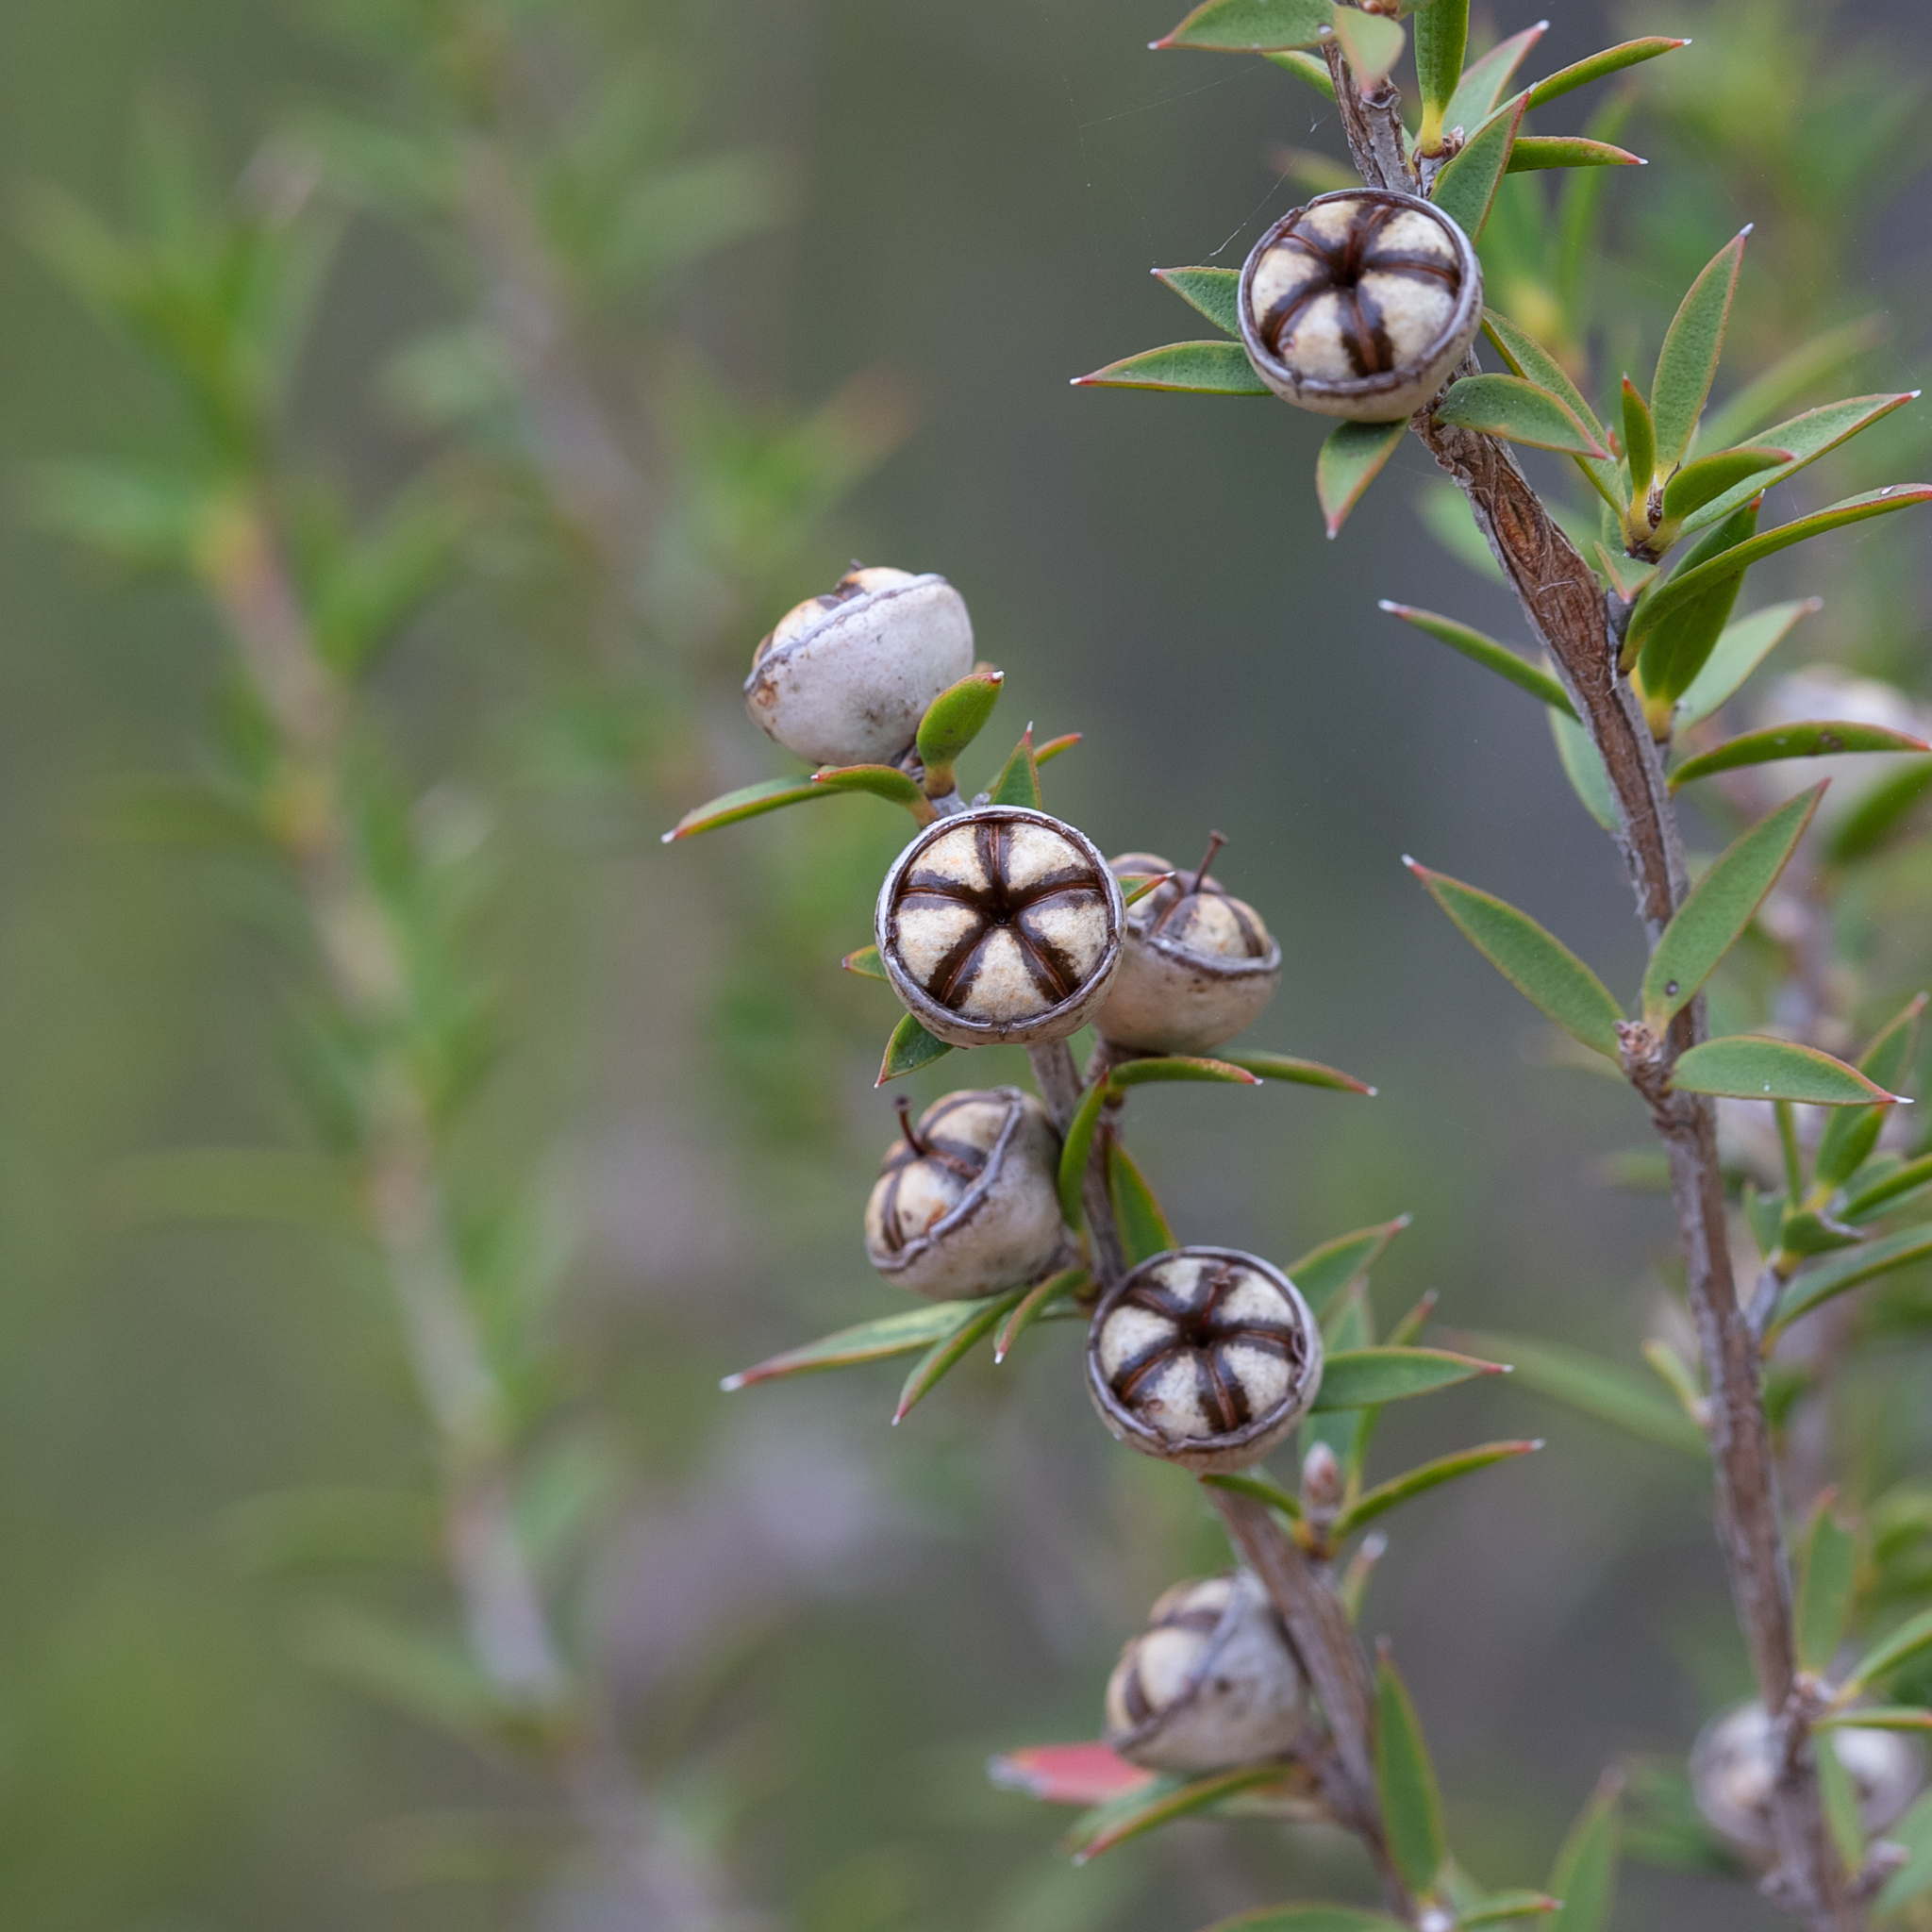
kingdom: Plantae
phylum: Tracheophyta
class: Magnoliopsida
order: Myrtales
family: Myrtaceae
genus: Leptospermum
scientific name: Leptospermum continentale
